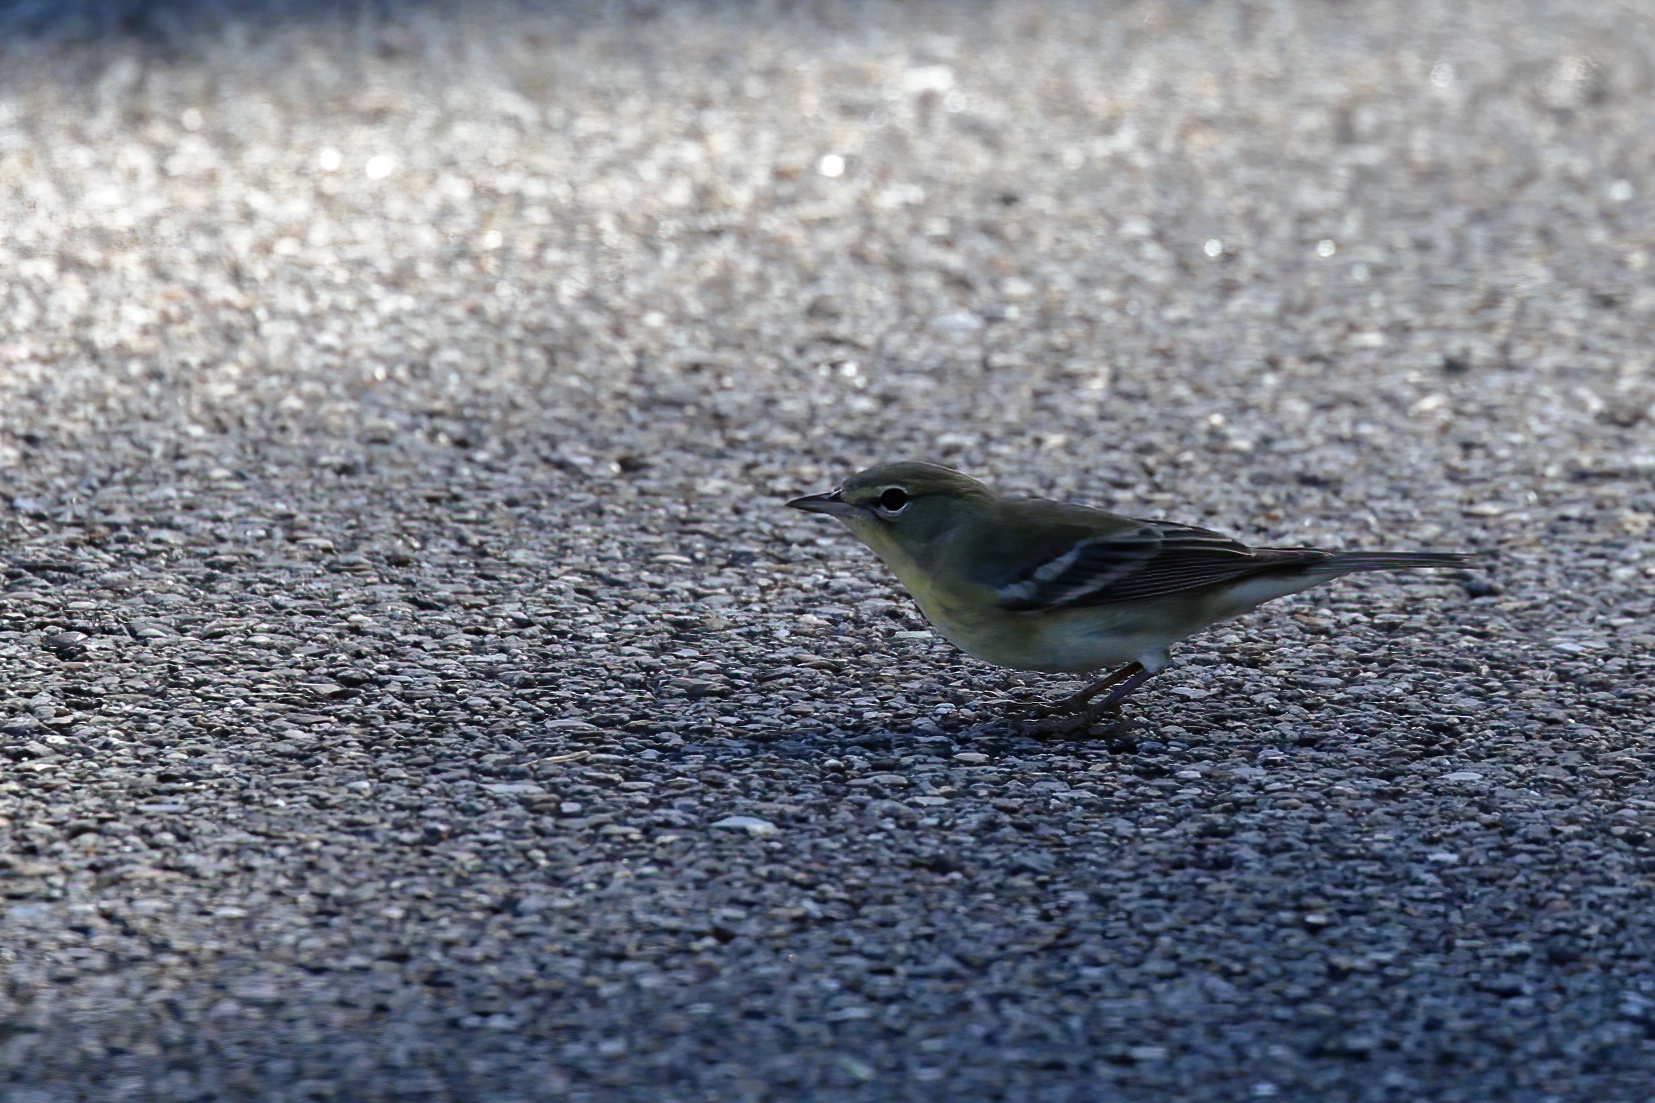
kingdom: Animalia
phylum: Chordata
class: Aves
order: Passeriformes
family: Parulidae
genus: Setophaga
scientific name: Setophaga pinus
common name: Pine warbler
